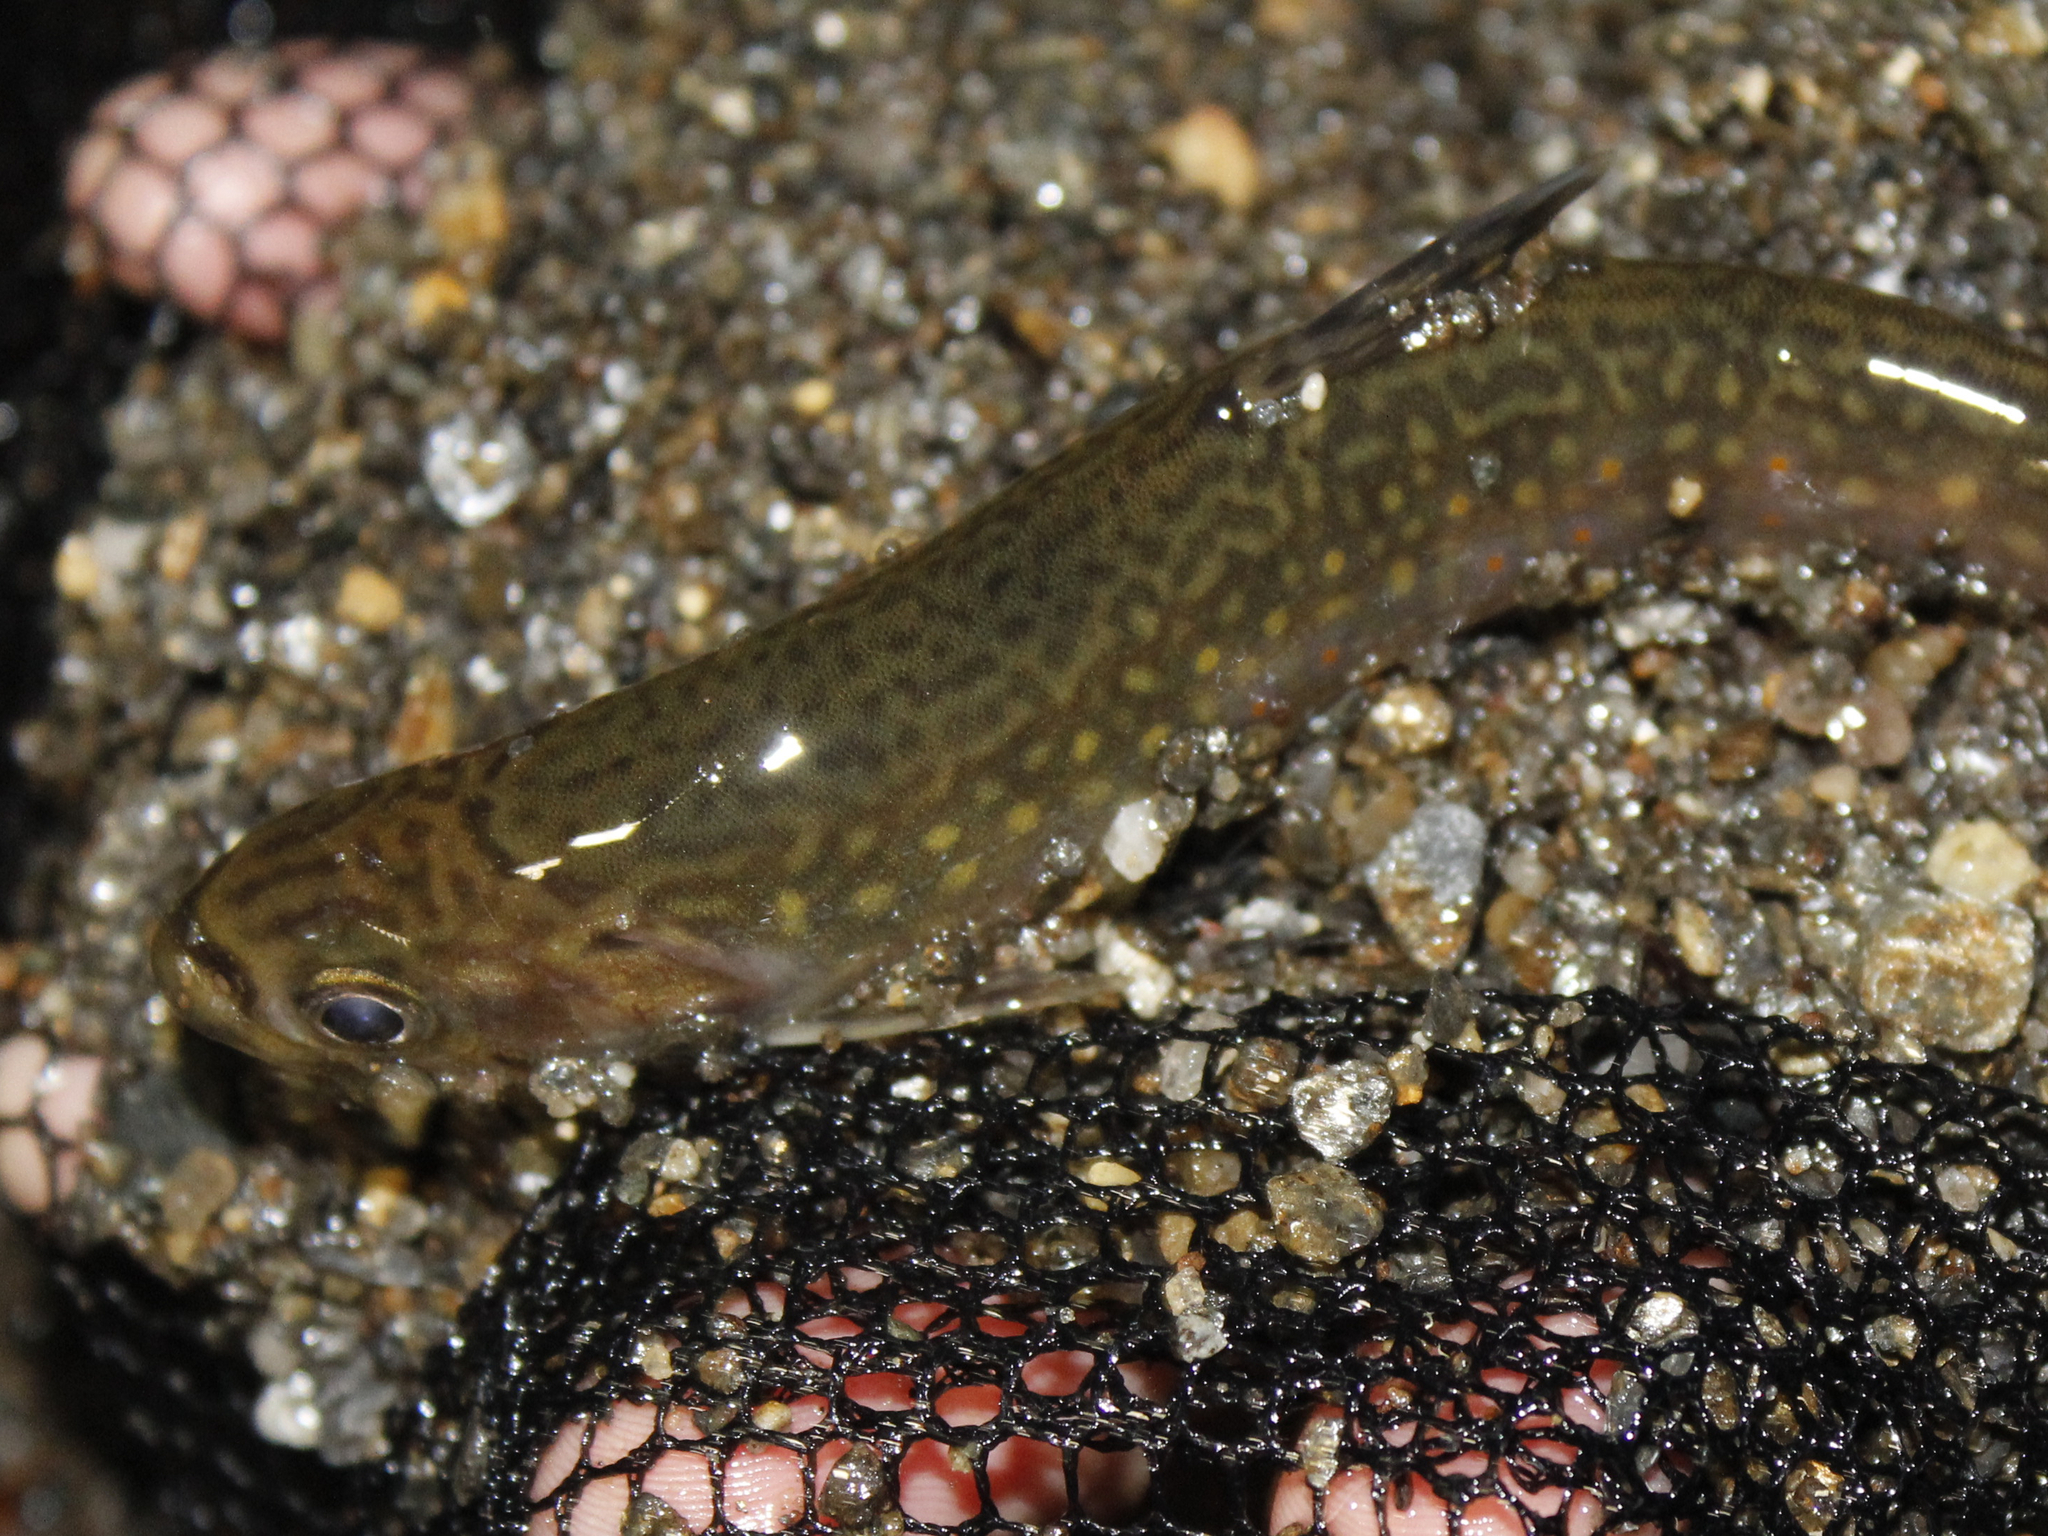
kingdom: Animalia
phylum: Chordata
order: Salmoniformes
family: Salmonidae
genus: Salvelinus
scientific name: Salvelinus fontinalis
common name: Brook trout
